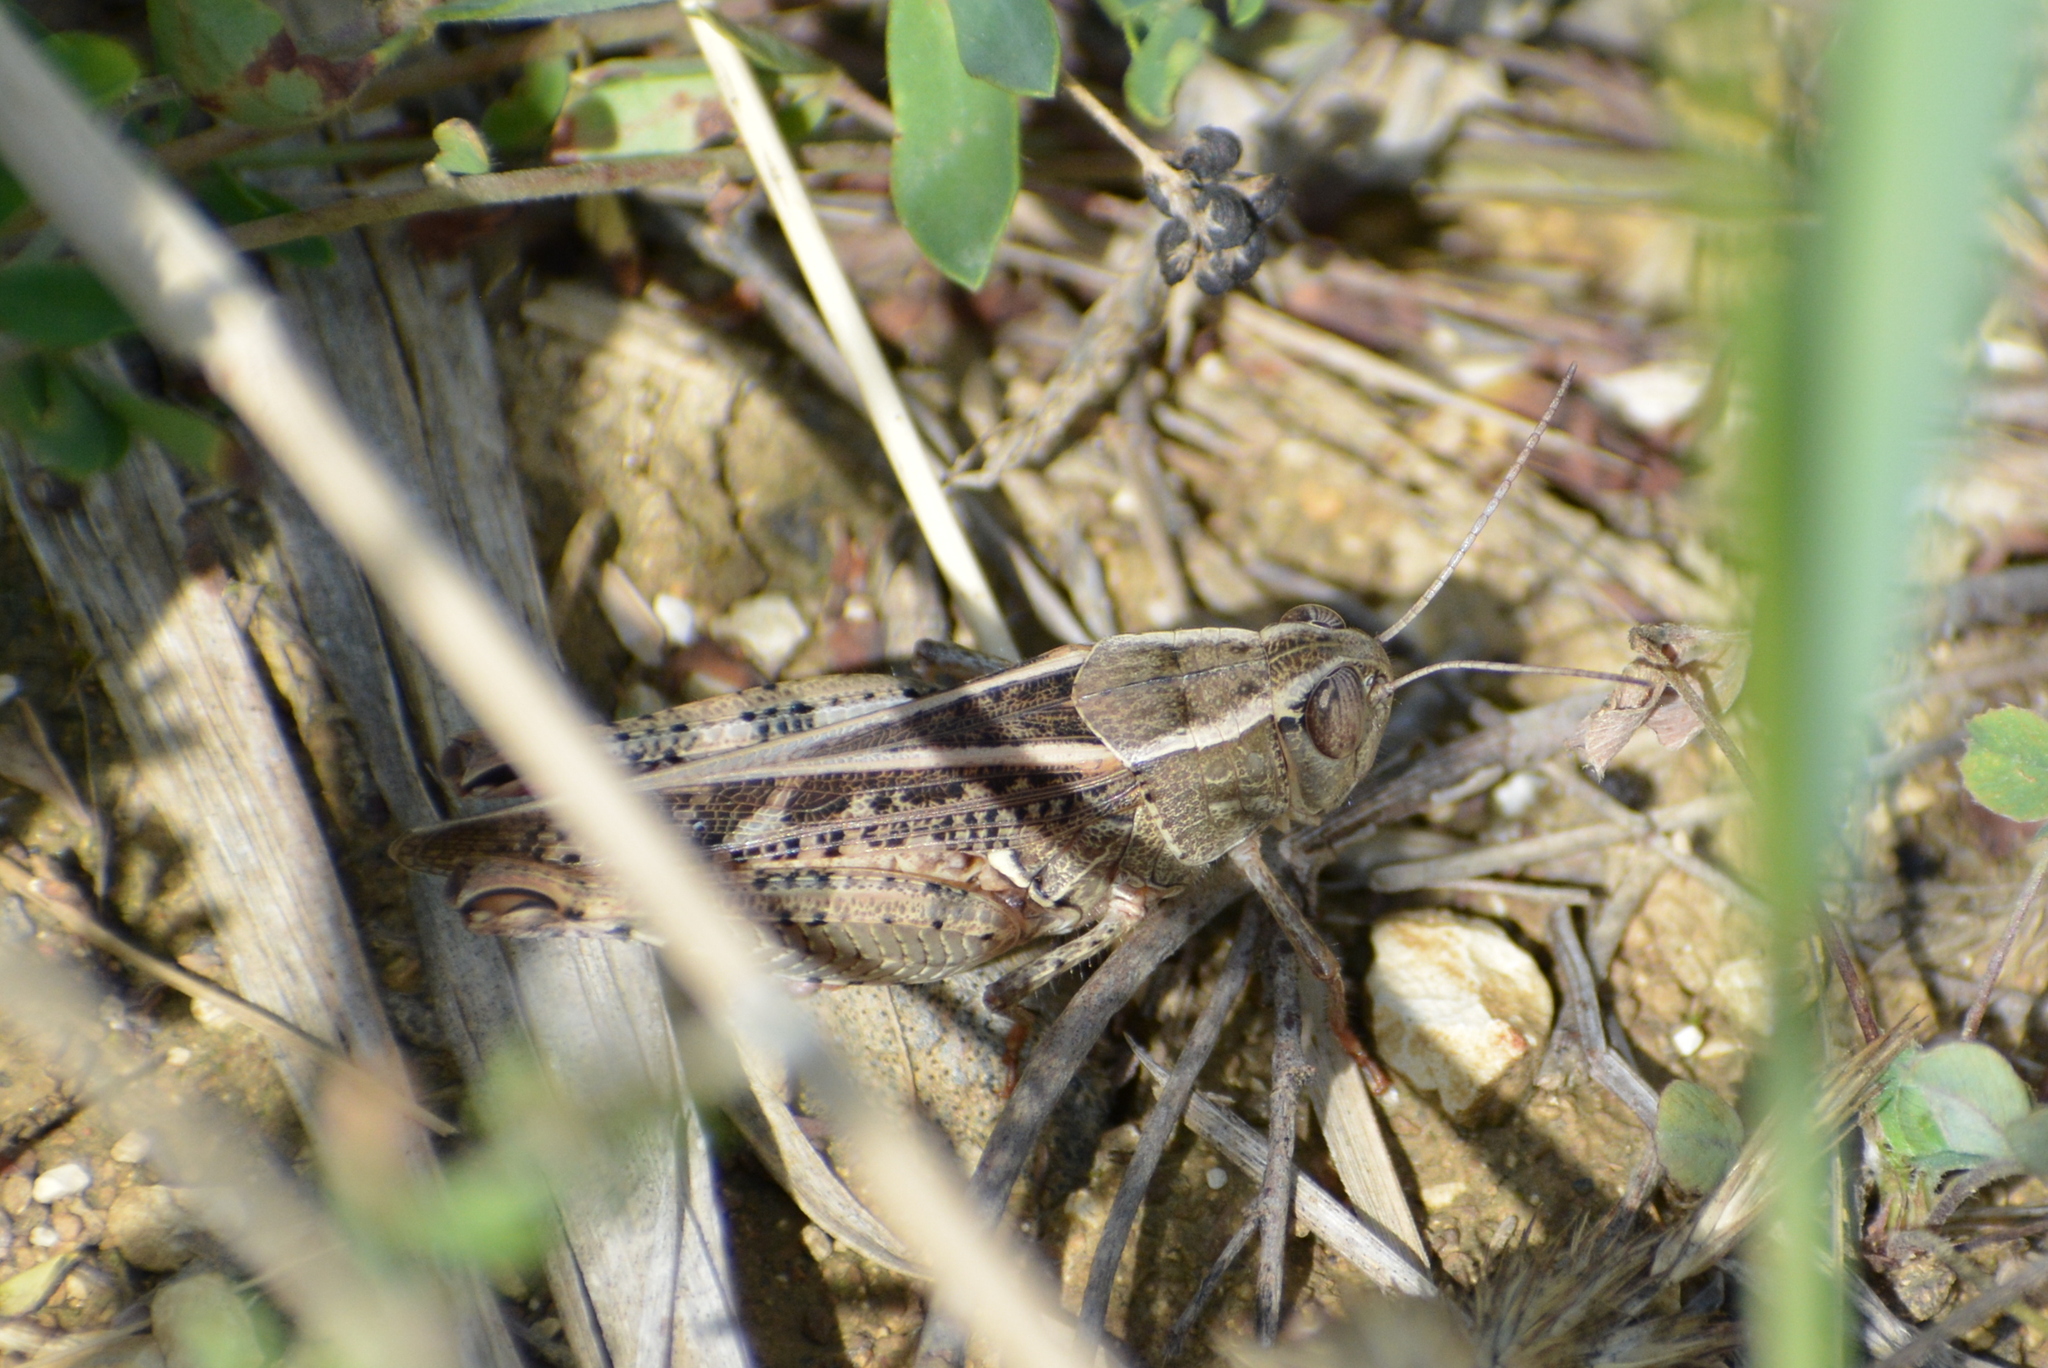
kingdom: Animalia
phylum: Arthropoda
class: Insecta
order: Orthoptera
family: Acrididae
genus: Calliptamus
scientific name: Calliptamus italicus
